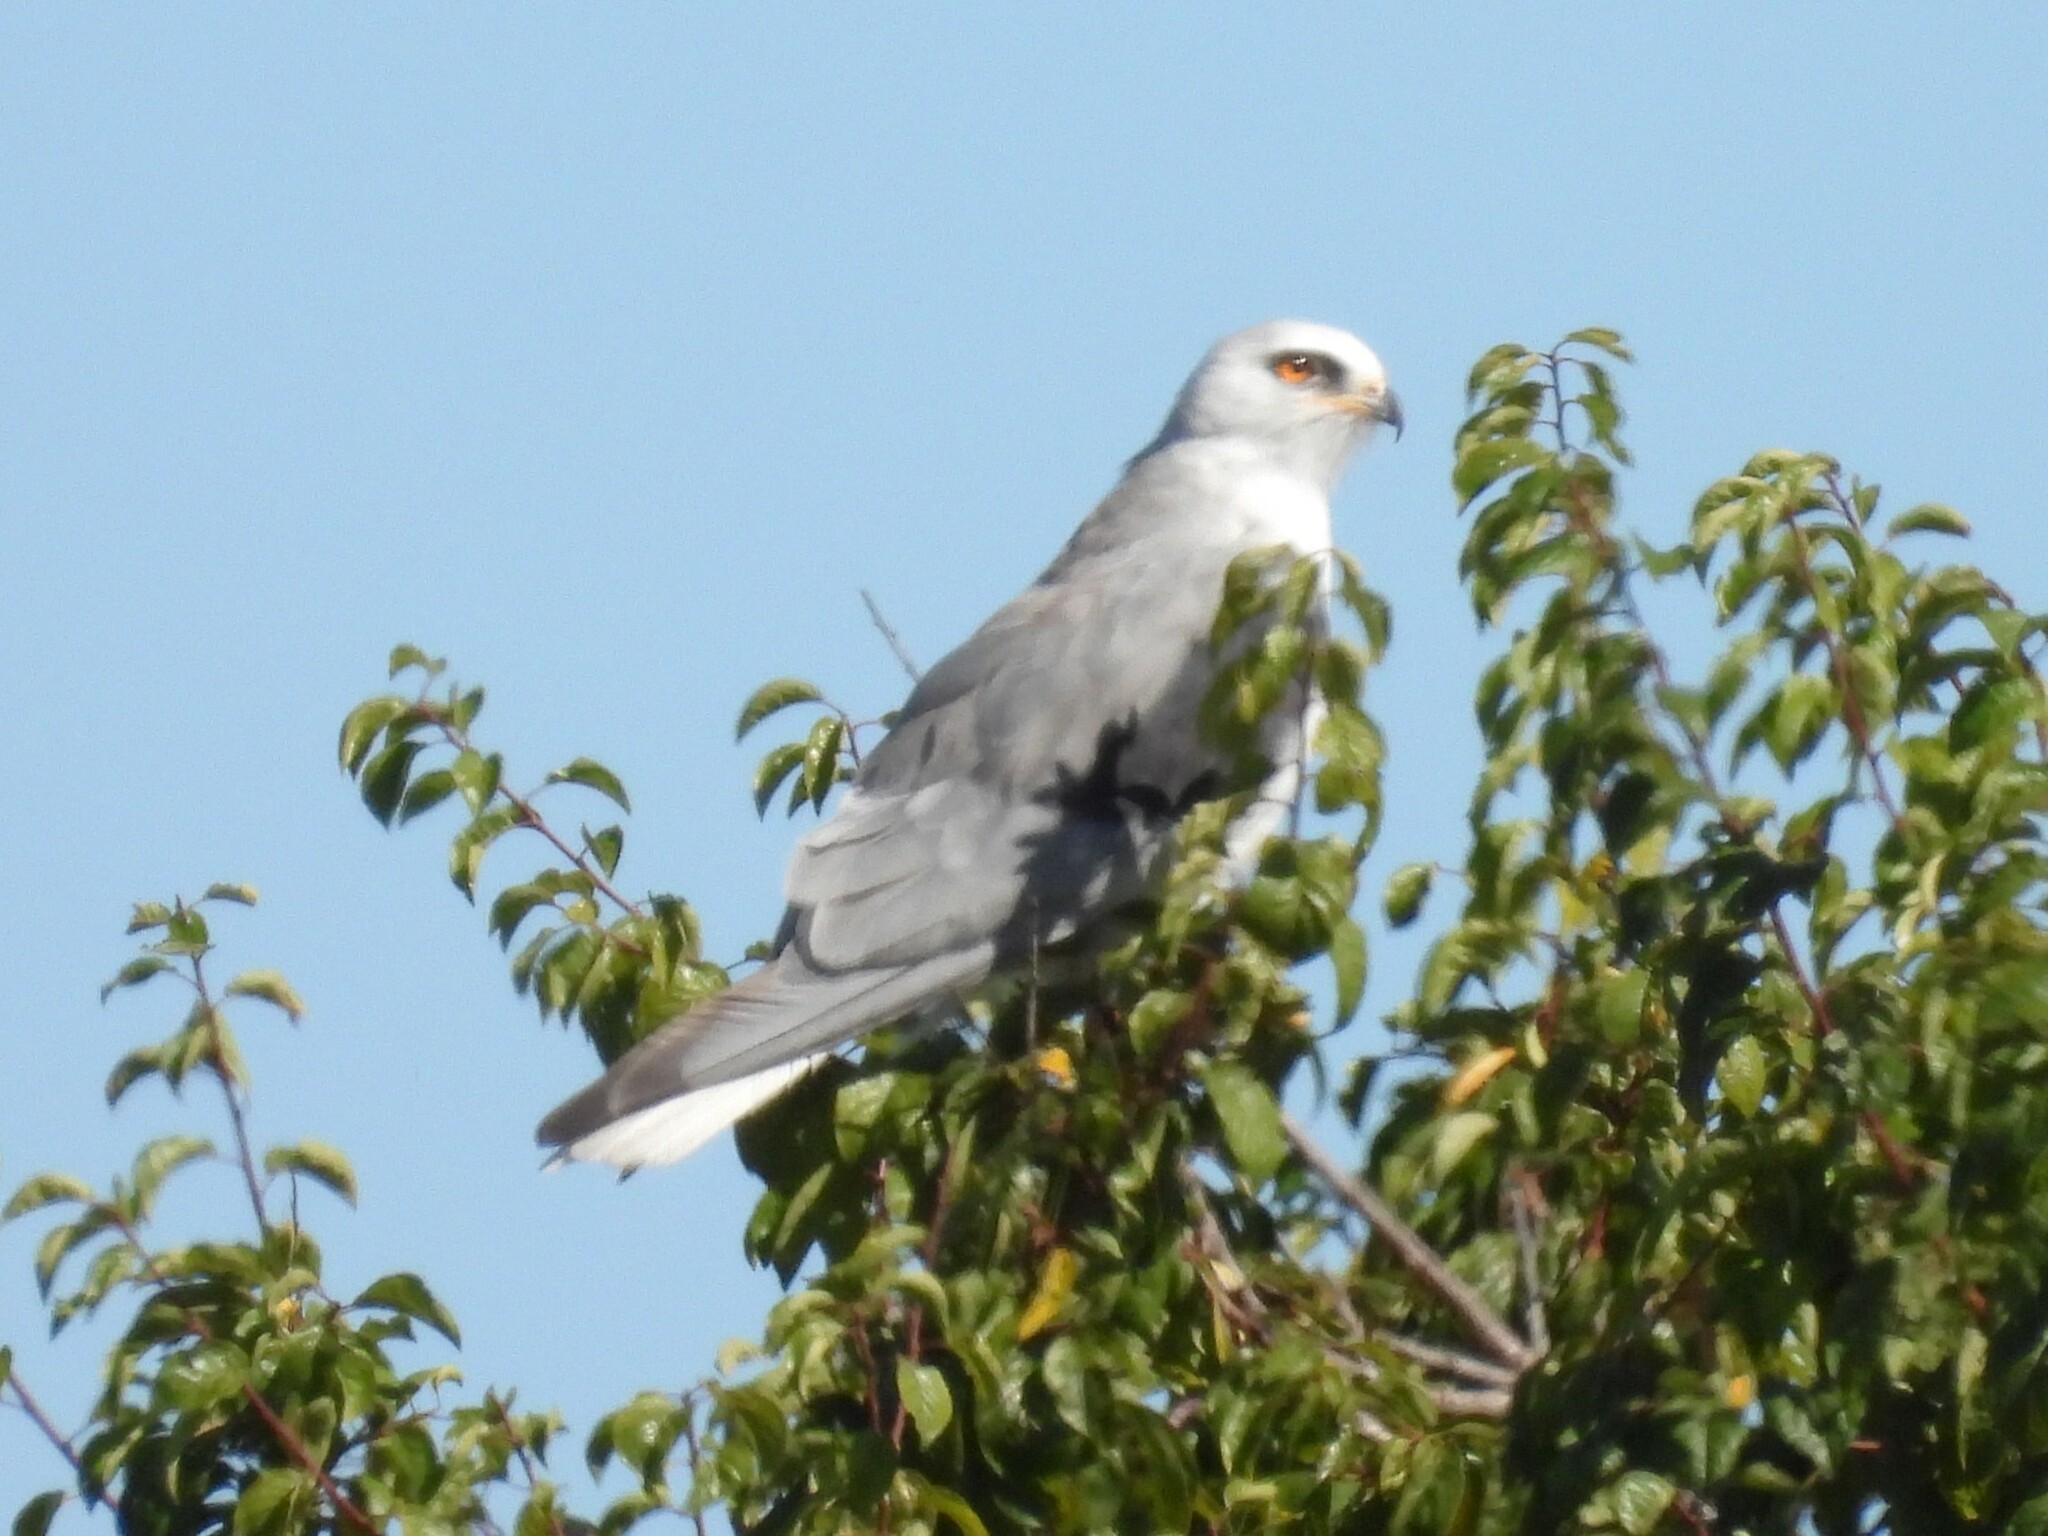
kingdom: Animalia
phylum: Chordata
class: Aves
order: Accipitriformes
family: Accipitridae
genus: Elanus
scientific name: Elanus leucurus
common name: White-tailed kite
